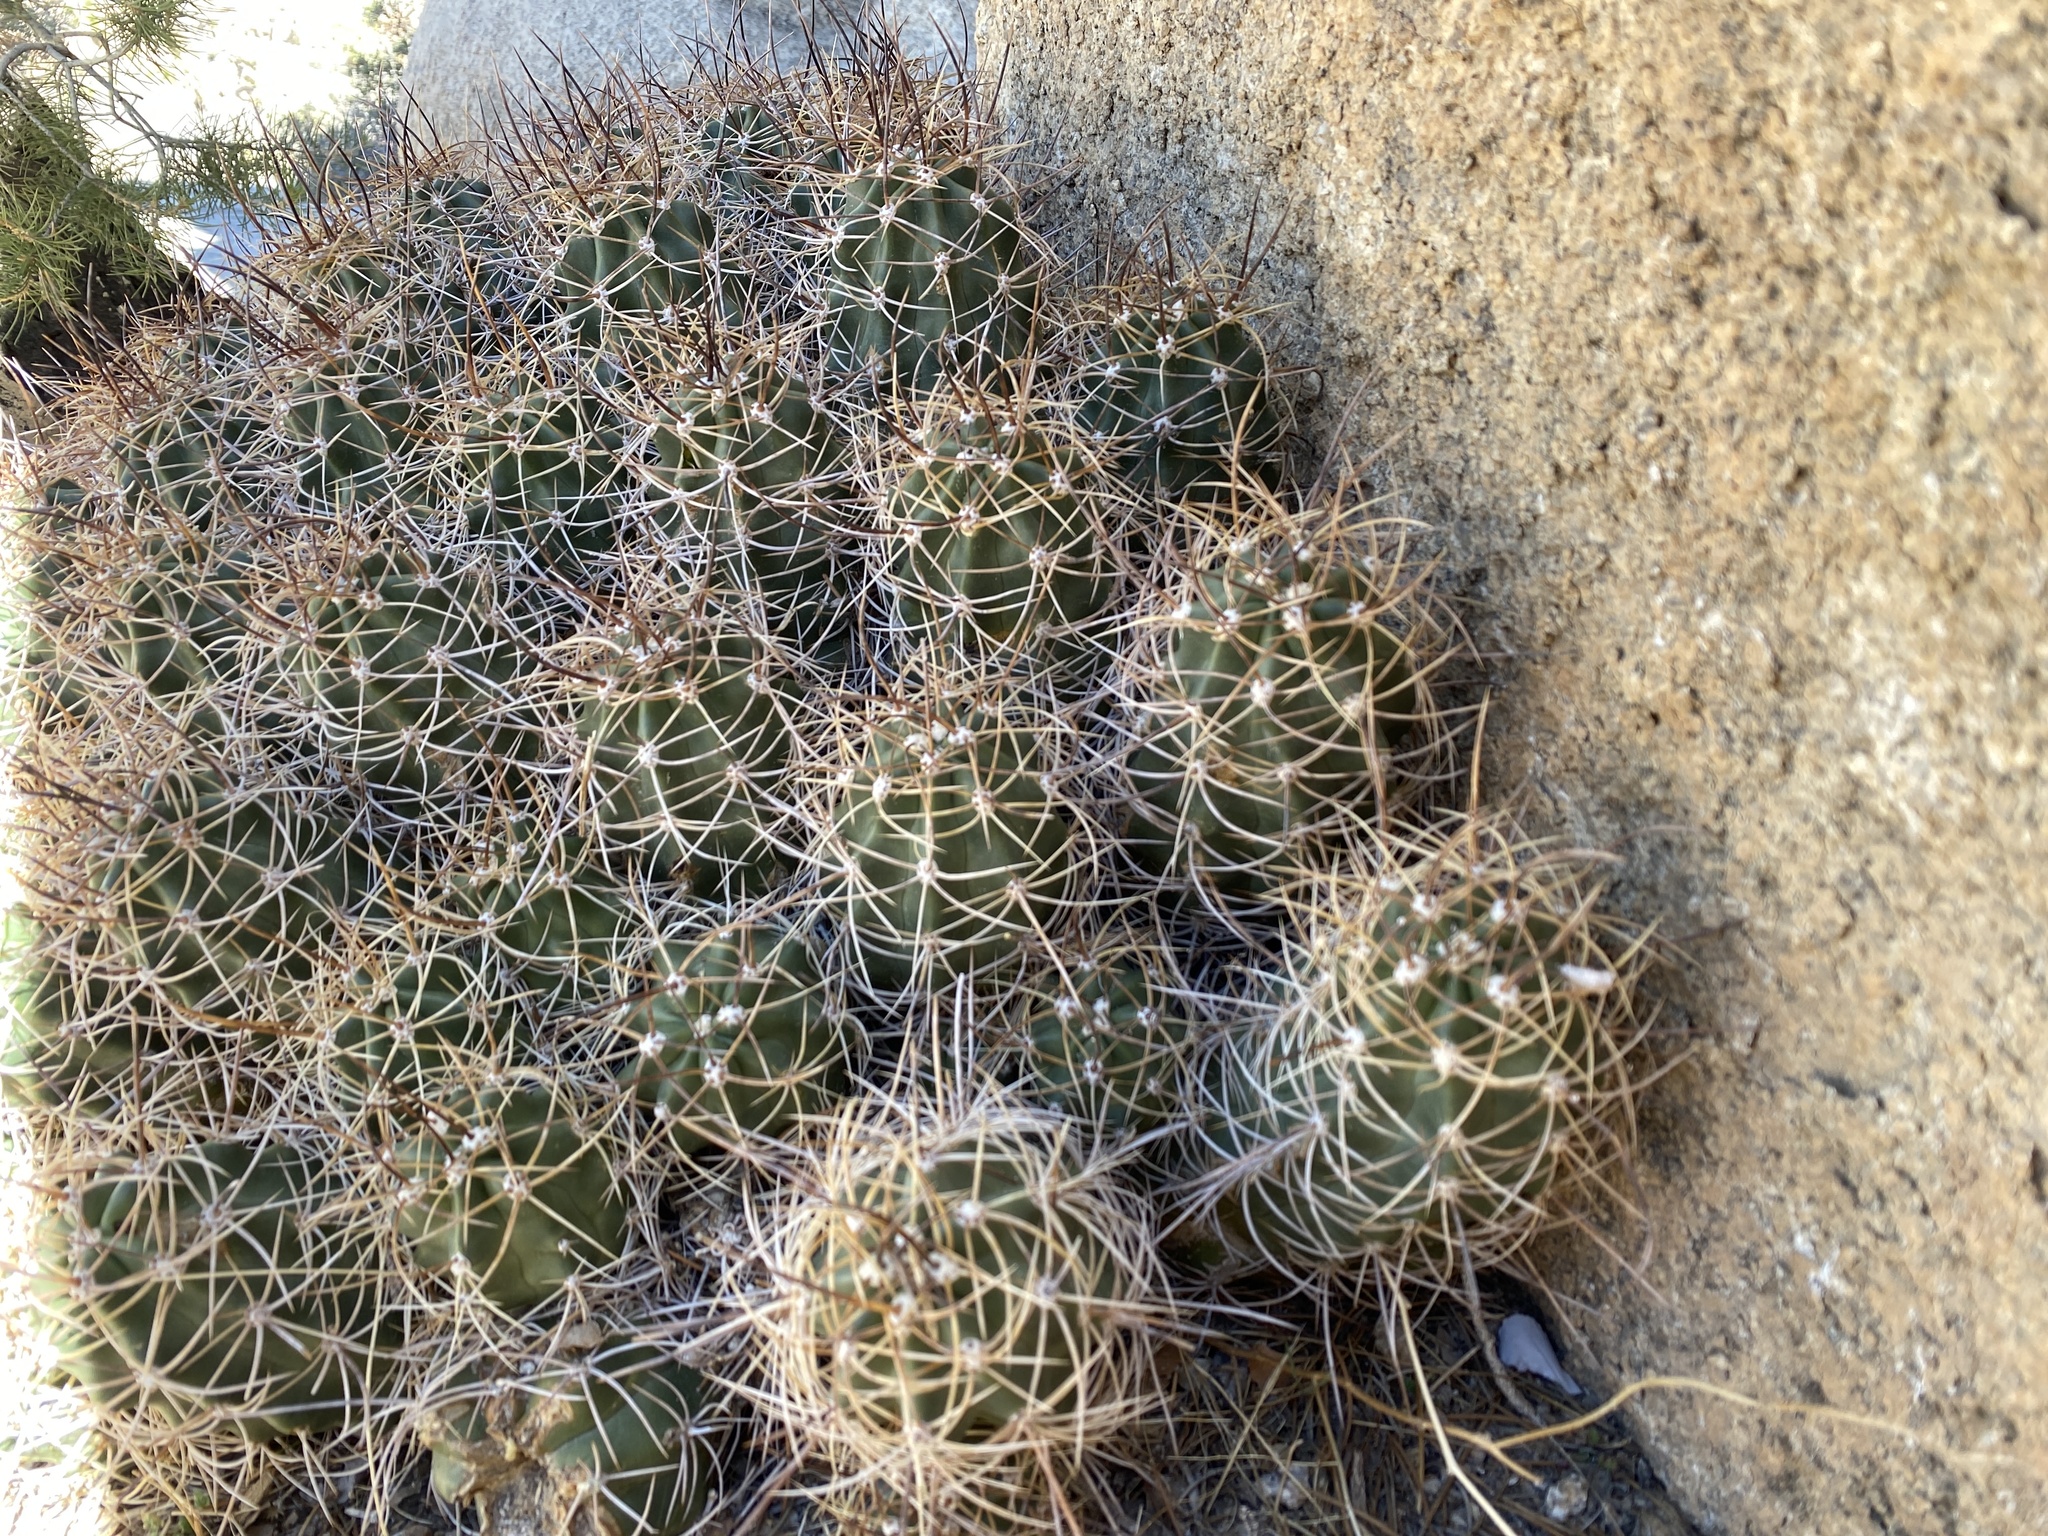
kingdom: Plantae
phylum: Tracheophyta
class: Magnoliopsida
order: Caryophyllales
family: Cactaceae
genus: Echinocereus
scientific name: Echinocereus triglochidiatus
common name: Claretcup hedgehog
